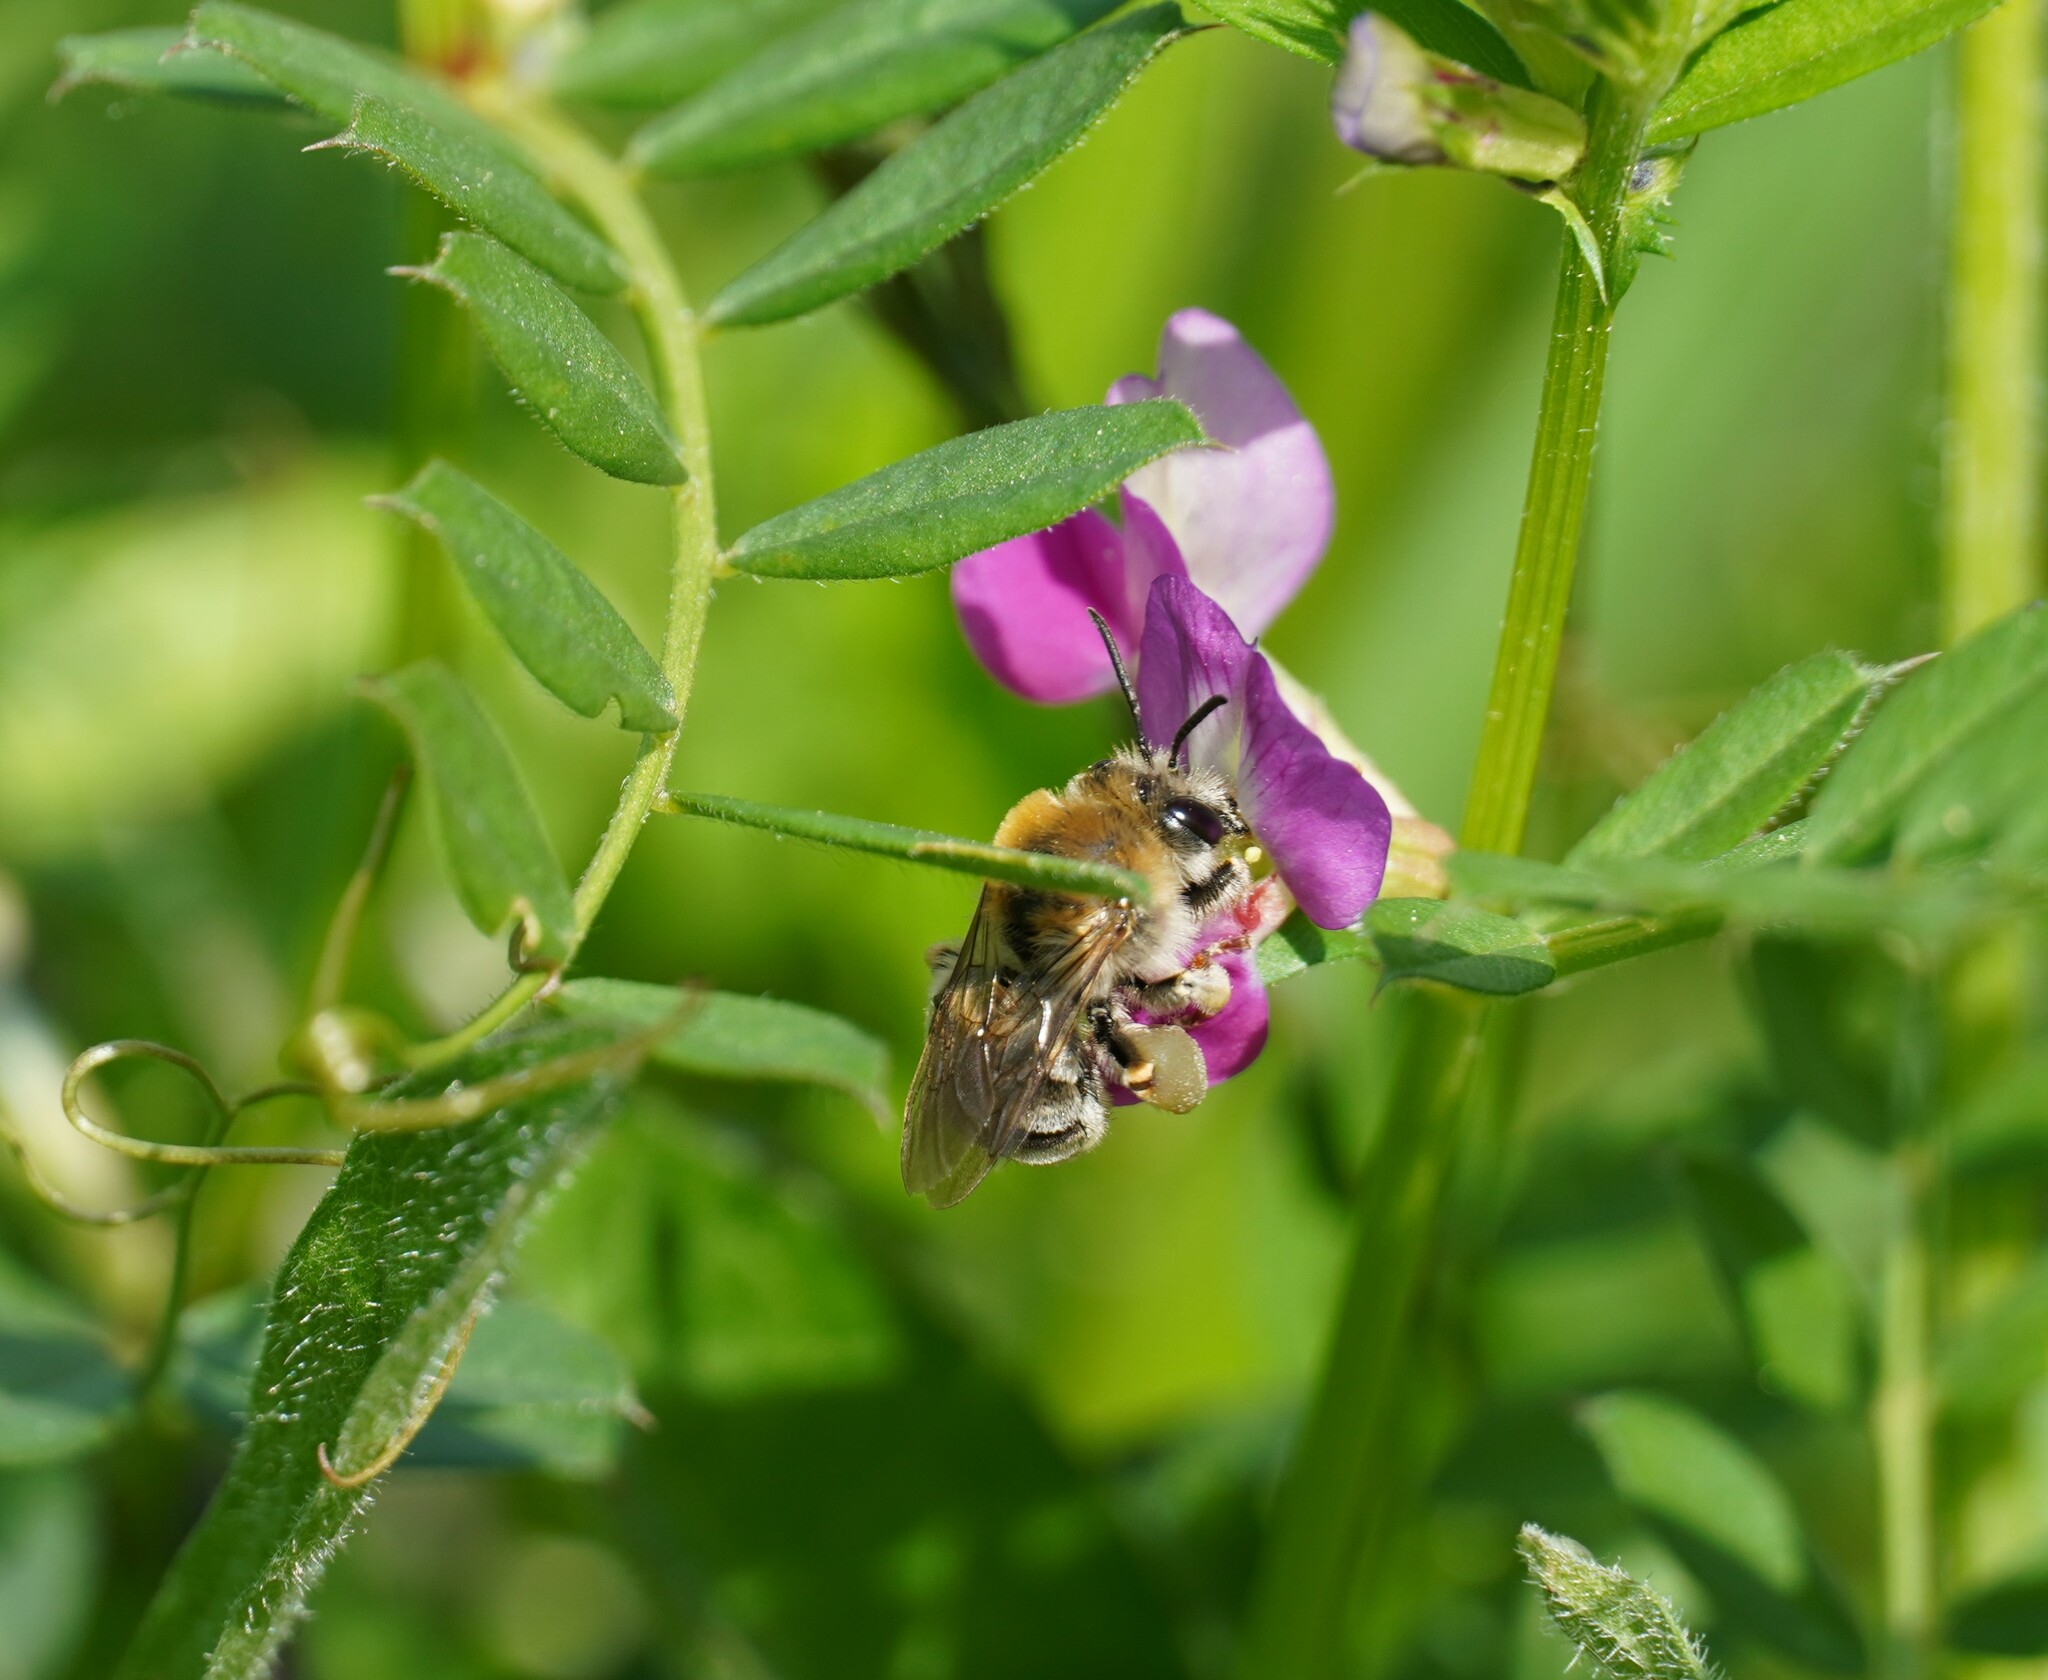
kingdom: Animalia
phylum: Arthropoda
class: Insecta
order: Hymenoptera
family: Apidae
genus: Eucera
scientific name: Eucera
